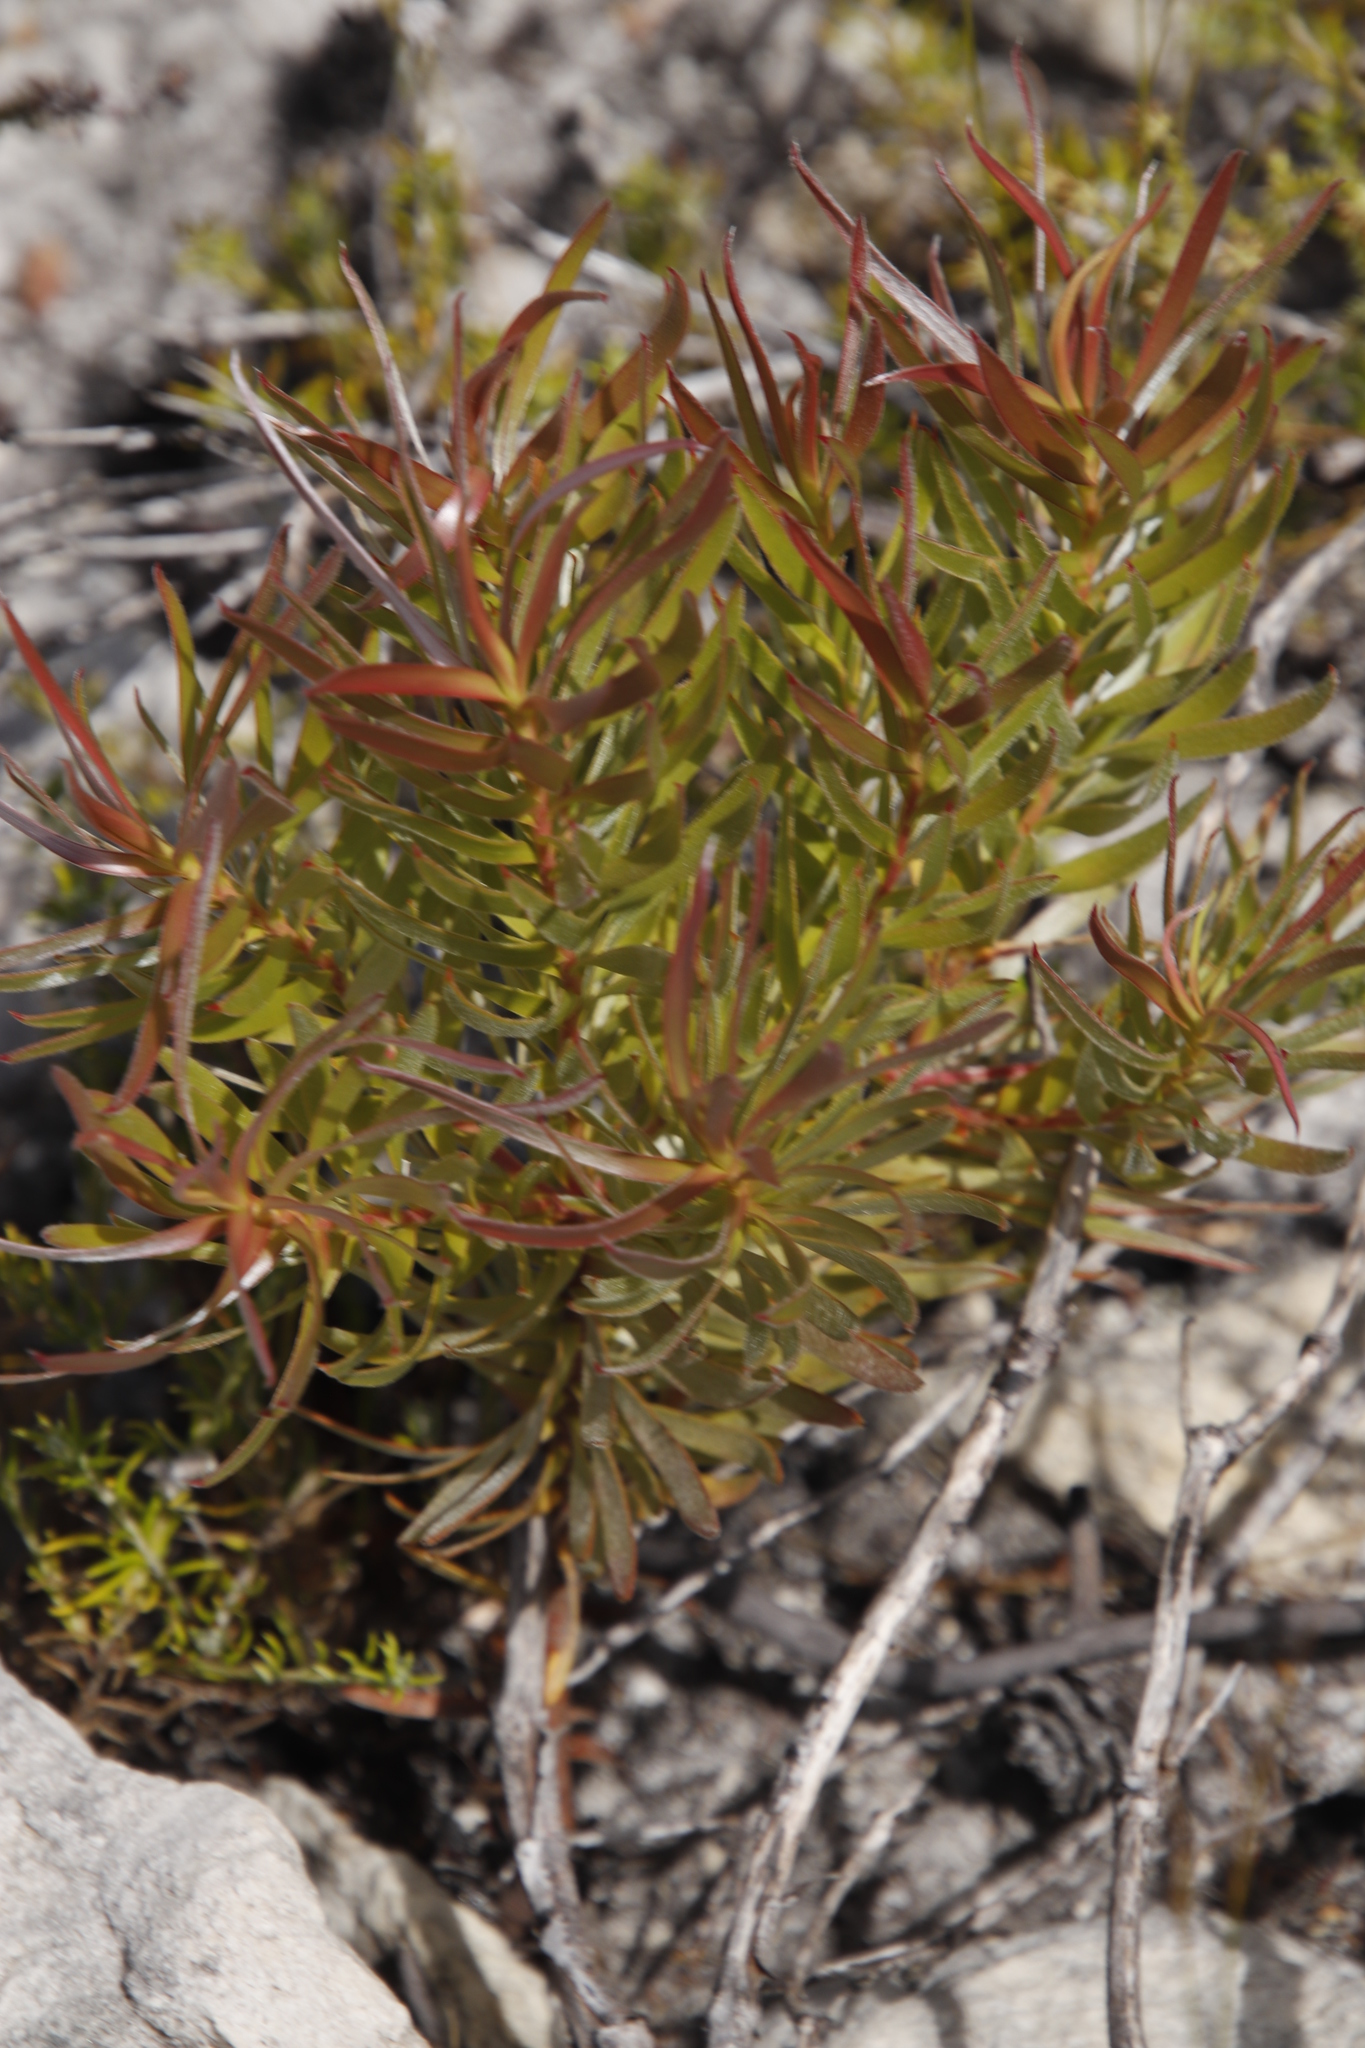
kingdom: Plantae
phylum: Tracheophyta
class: Magnoliopsida
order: Proteales
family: Proteaceae
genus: Leucadendron
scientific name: Leucadendron xanthoconus
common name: Sickle-leaf conebush
